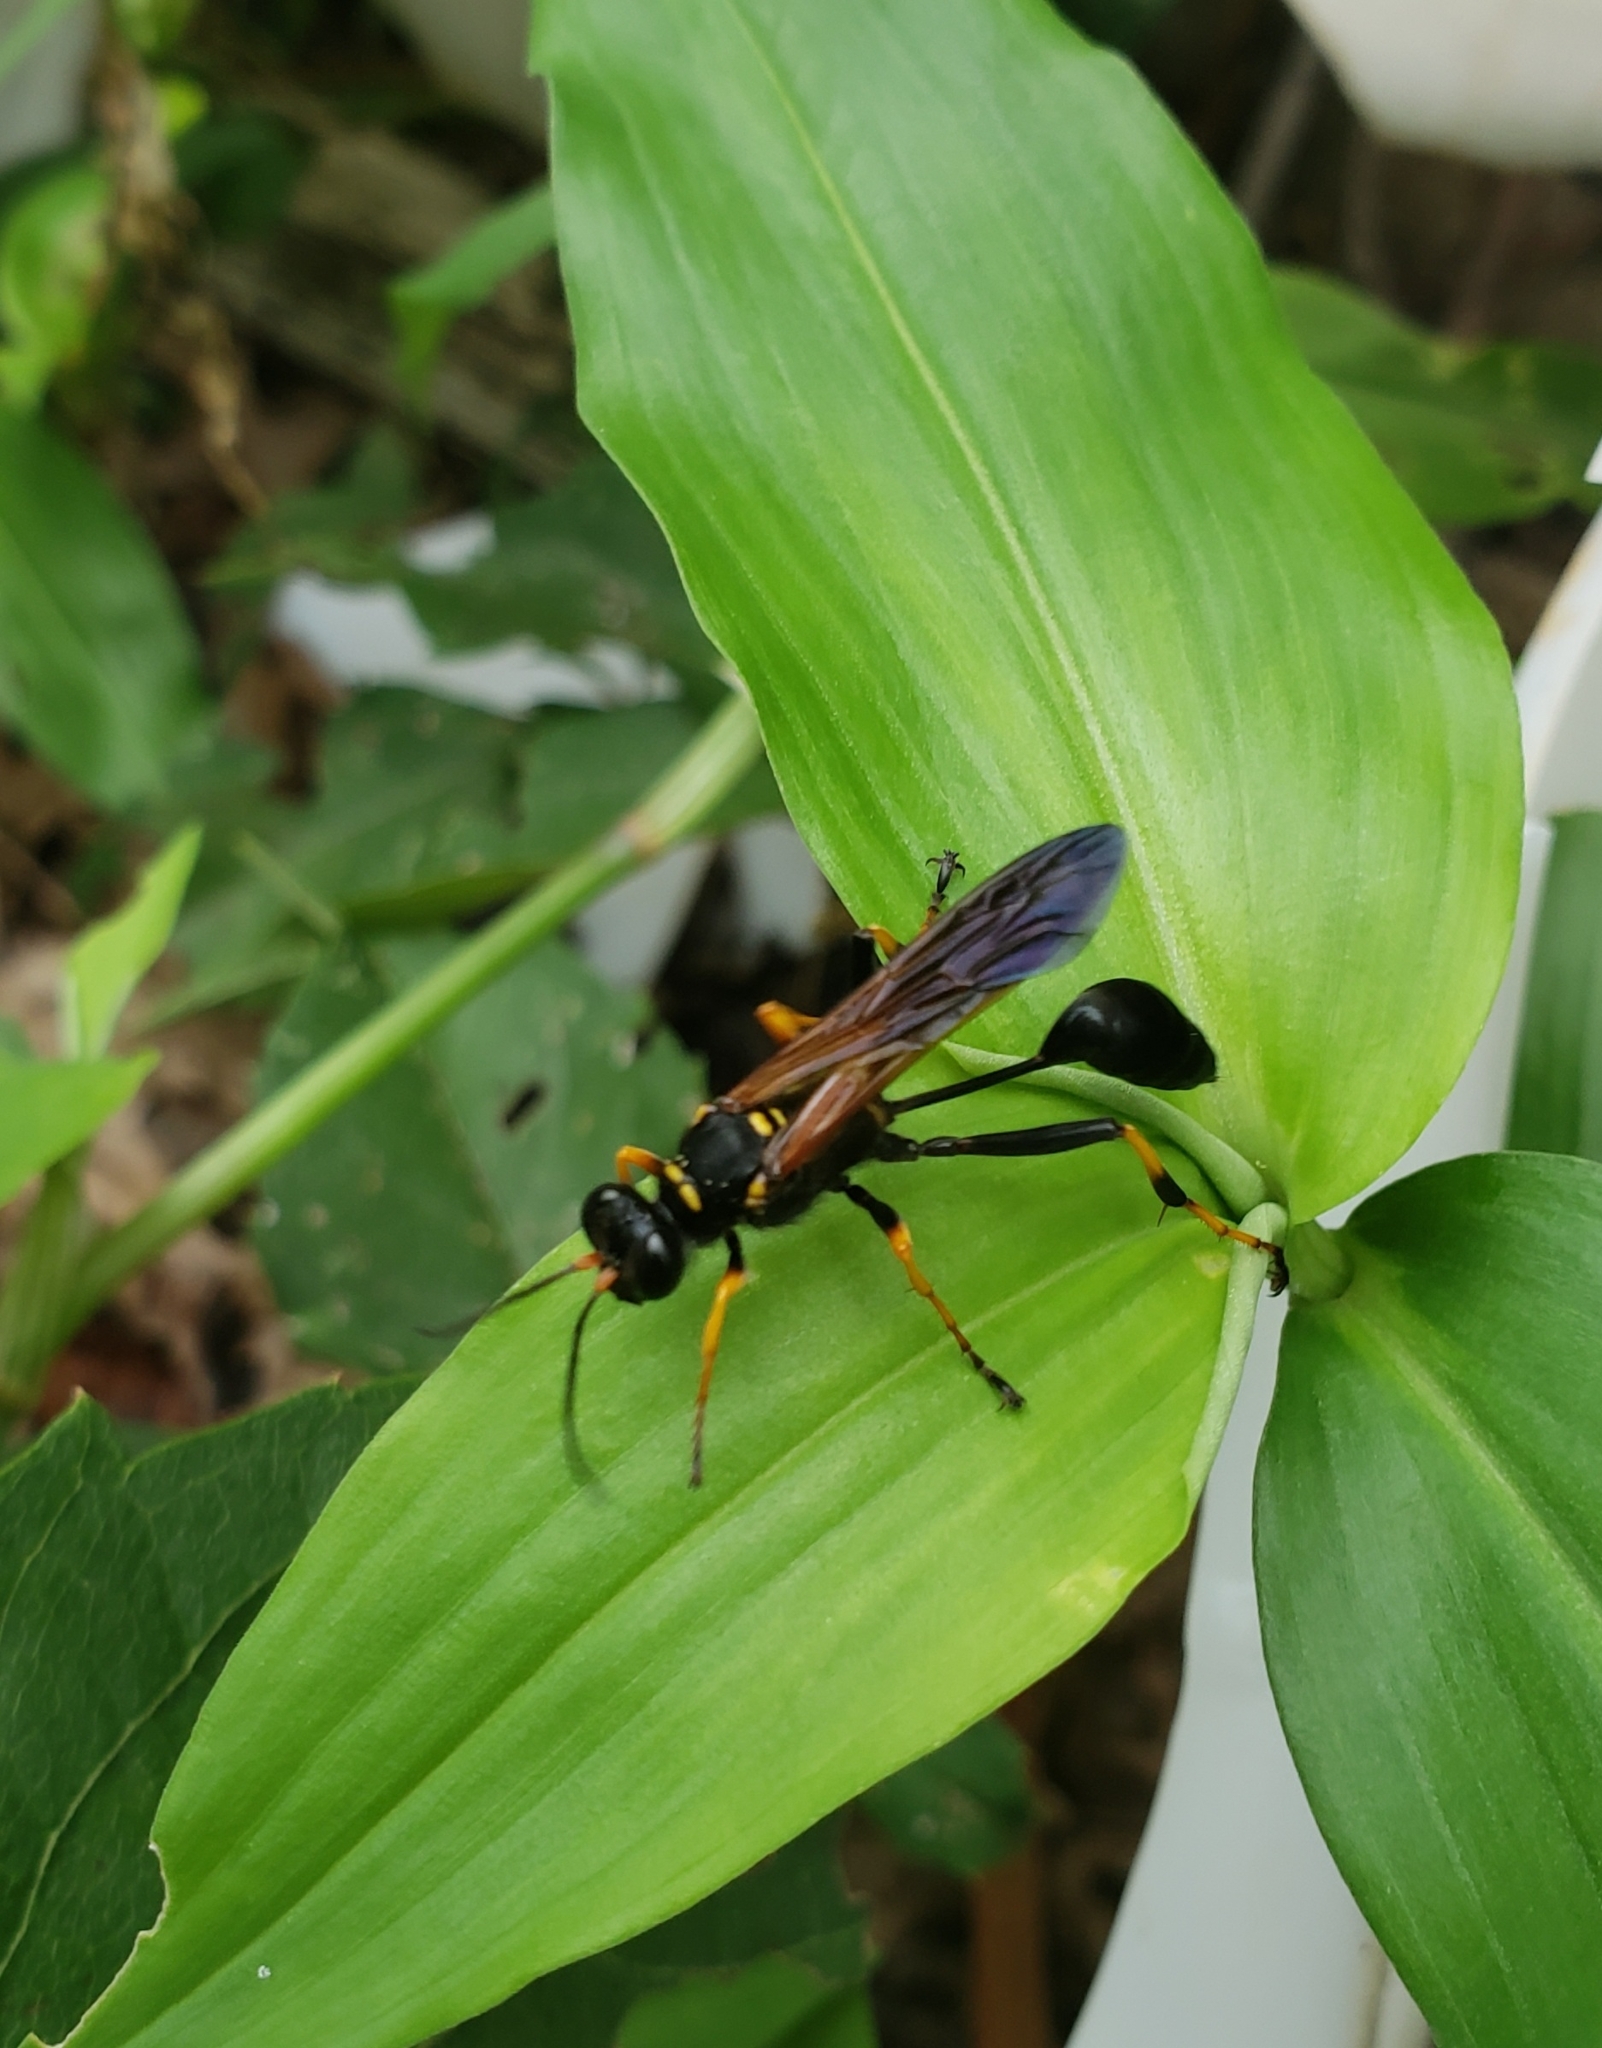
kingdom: Animalia
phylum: Arthropoda
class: Insecta
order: Hymenoptera
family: Sphecidae
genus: Sceliphron
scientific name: Sceliphron caementarium
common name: Mud dauber
